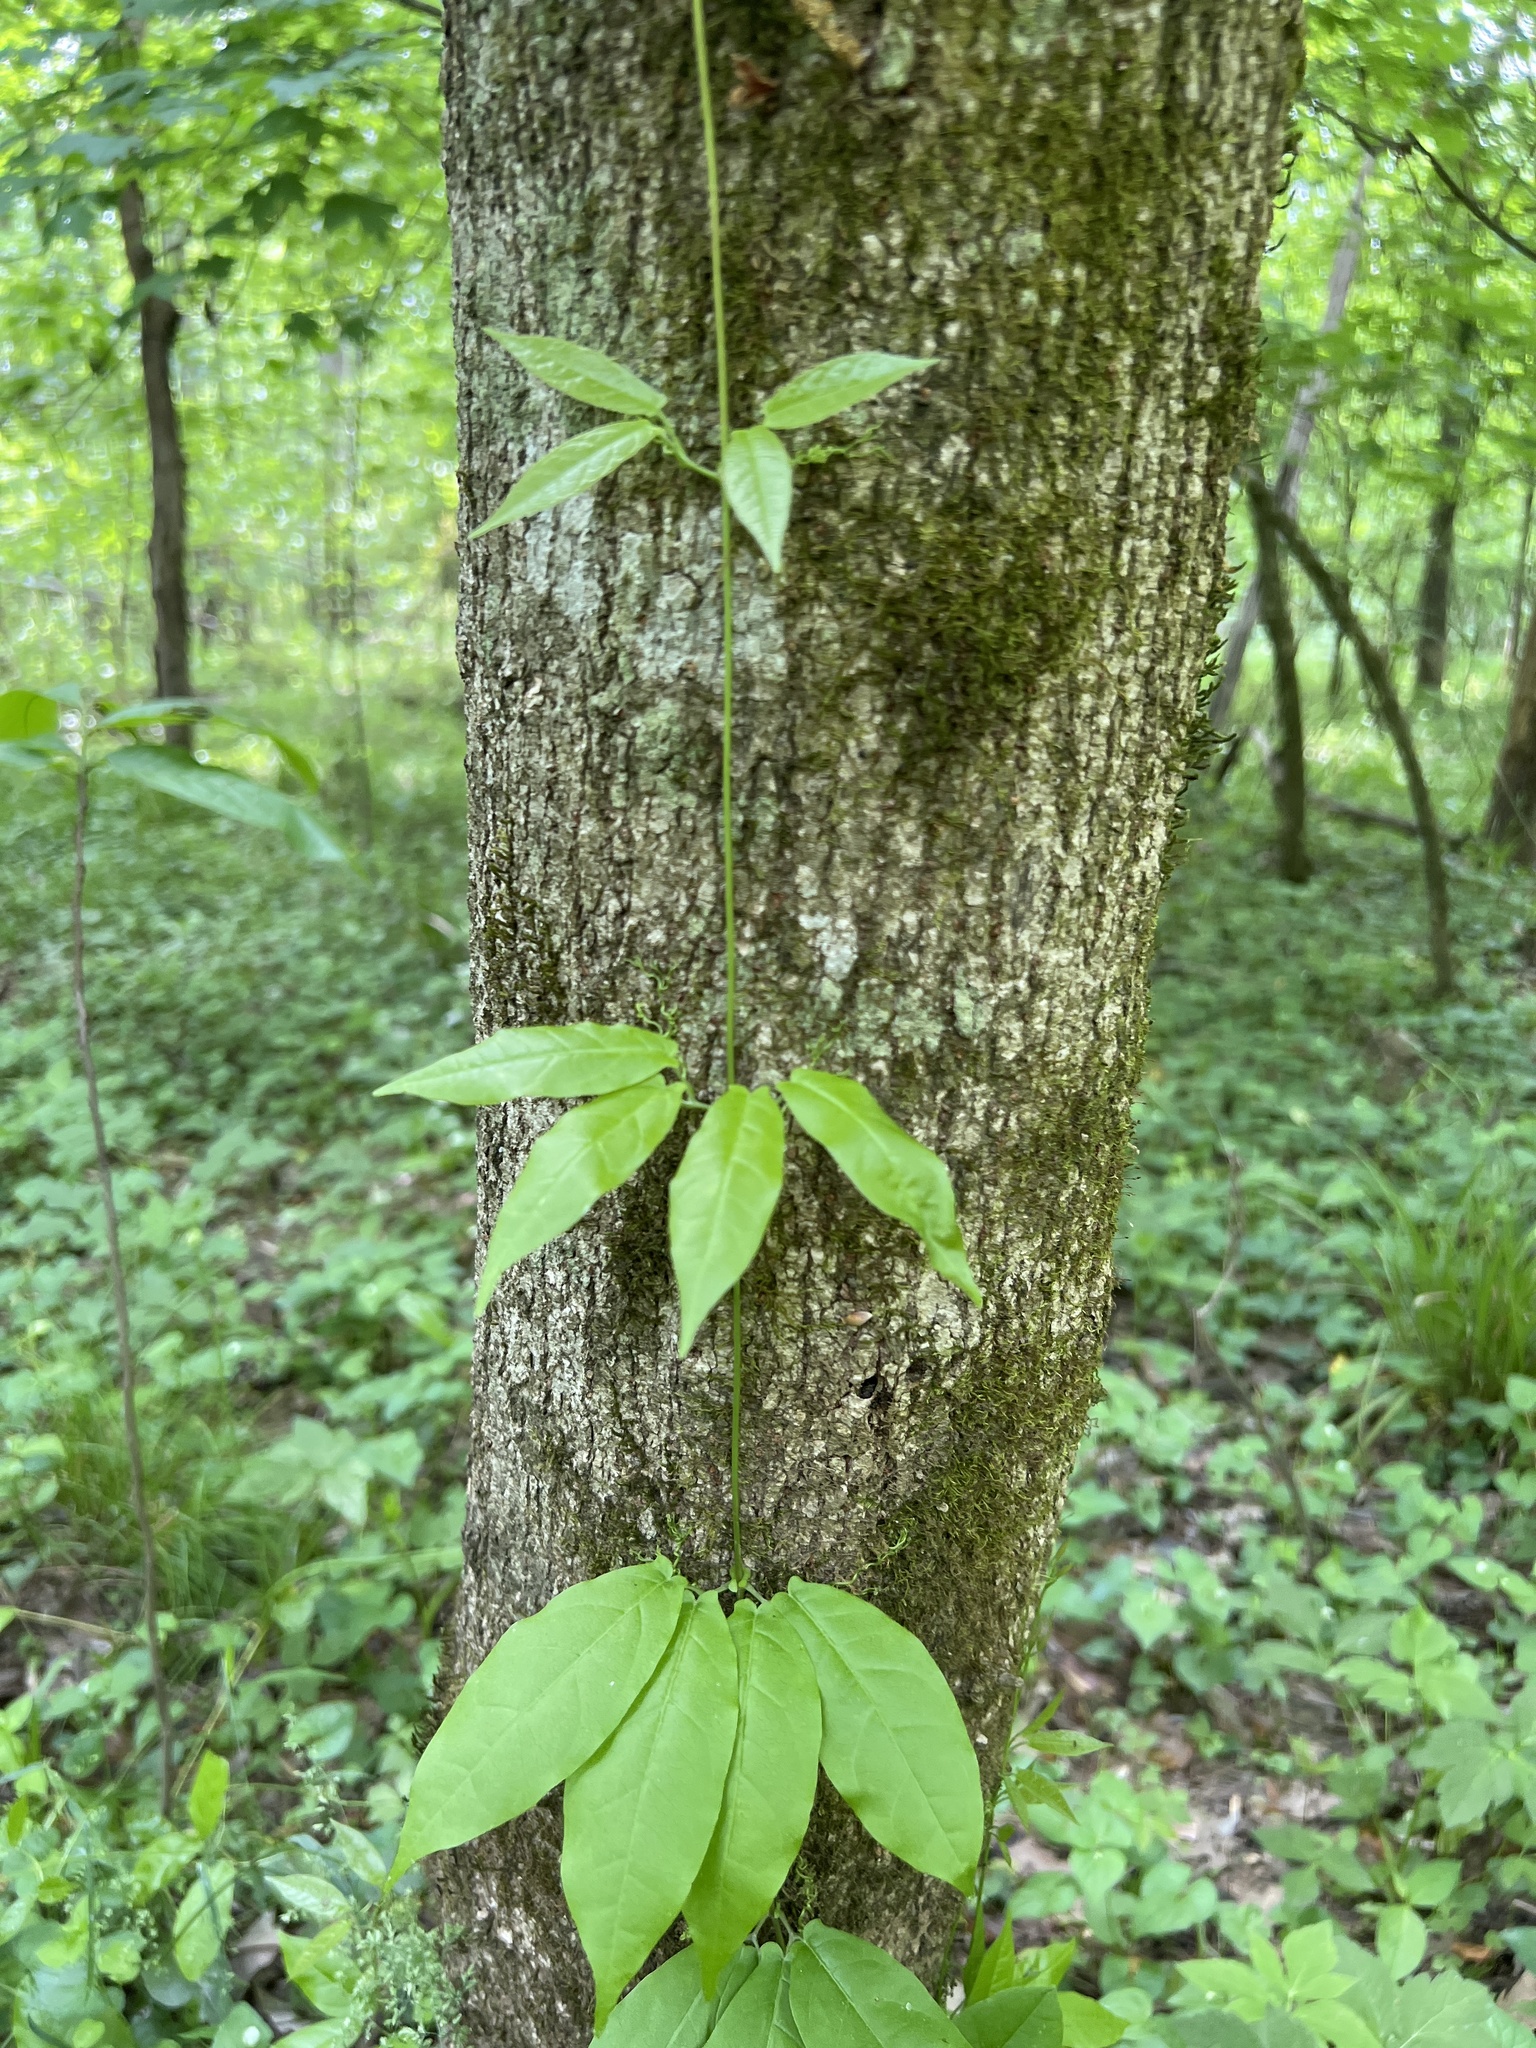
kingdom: Plantae
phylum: Tracheophyta
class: Magnoliopsida
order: Lamiales
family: Bignoniaceae
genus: Bignonia
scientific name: Bignonia capreolata
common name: Crossvine
